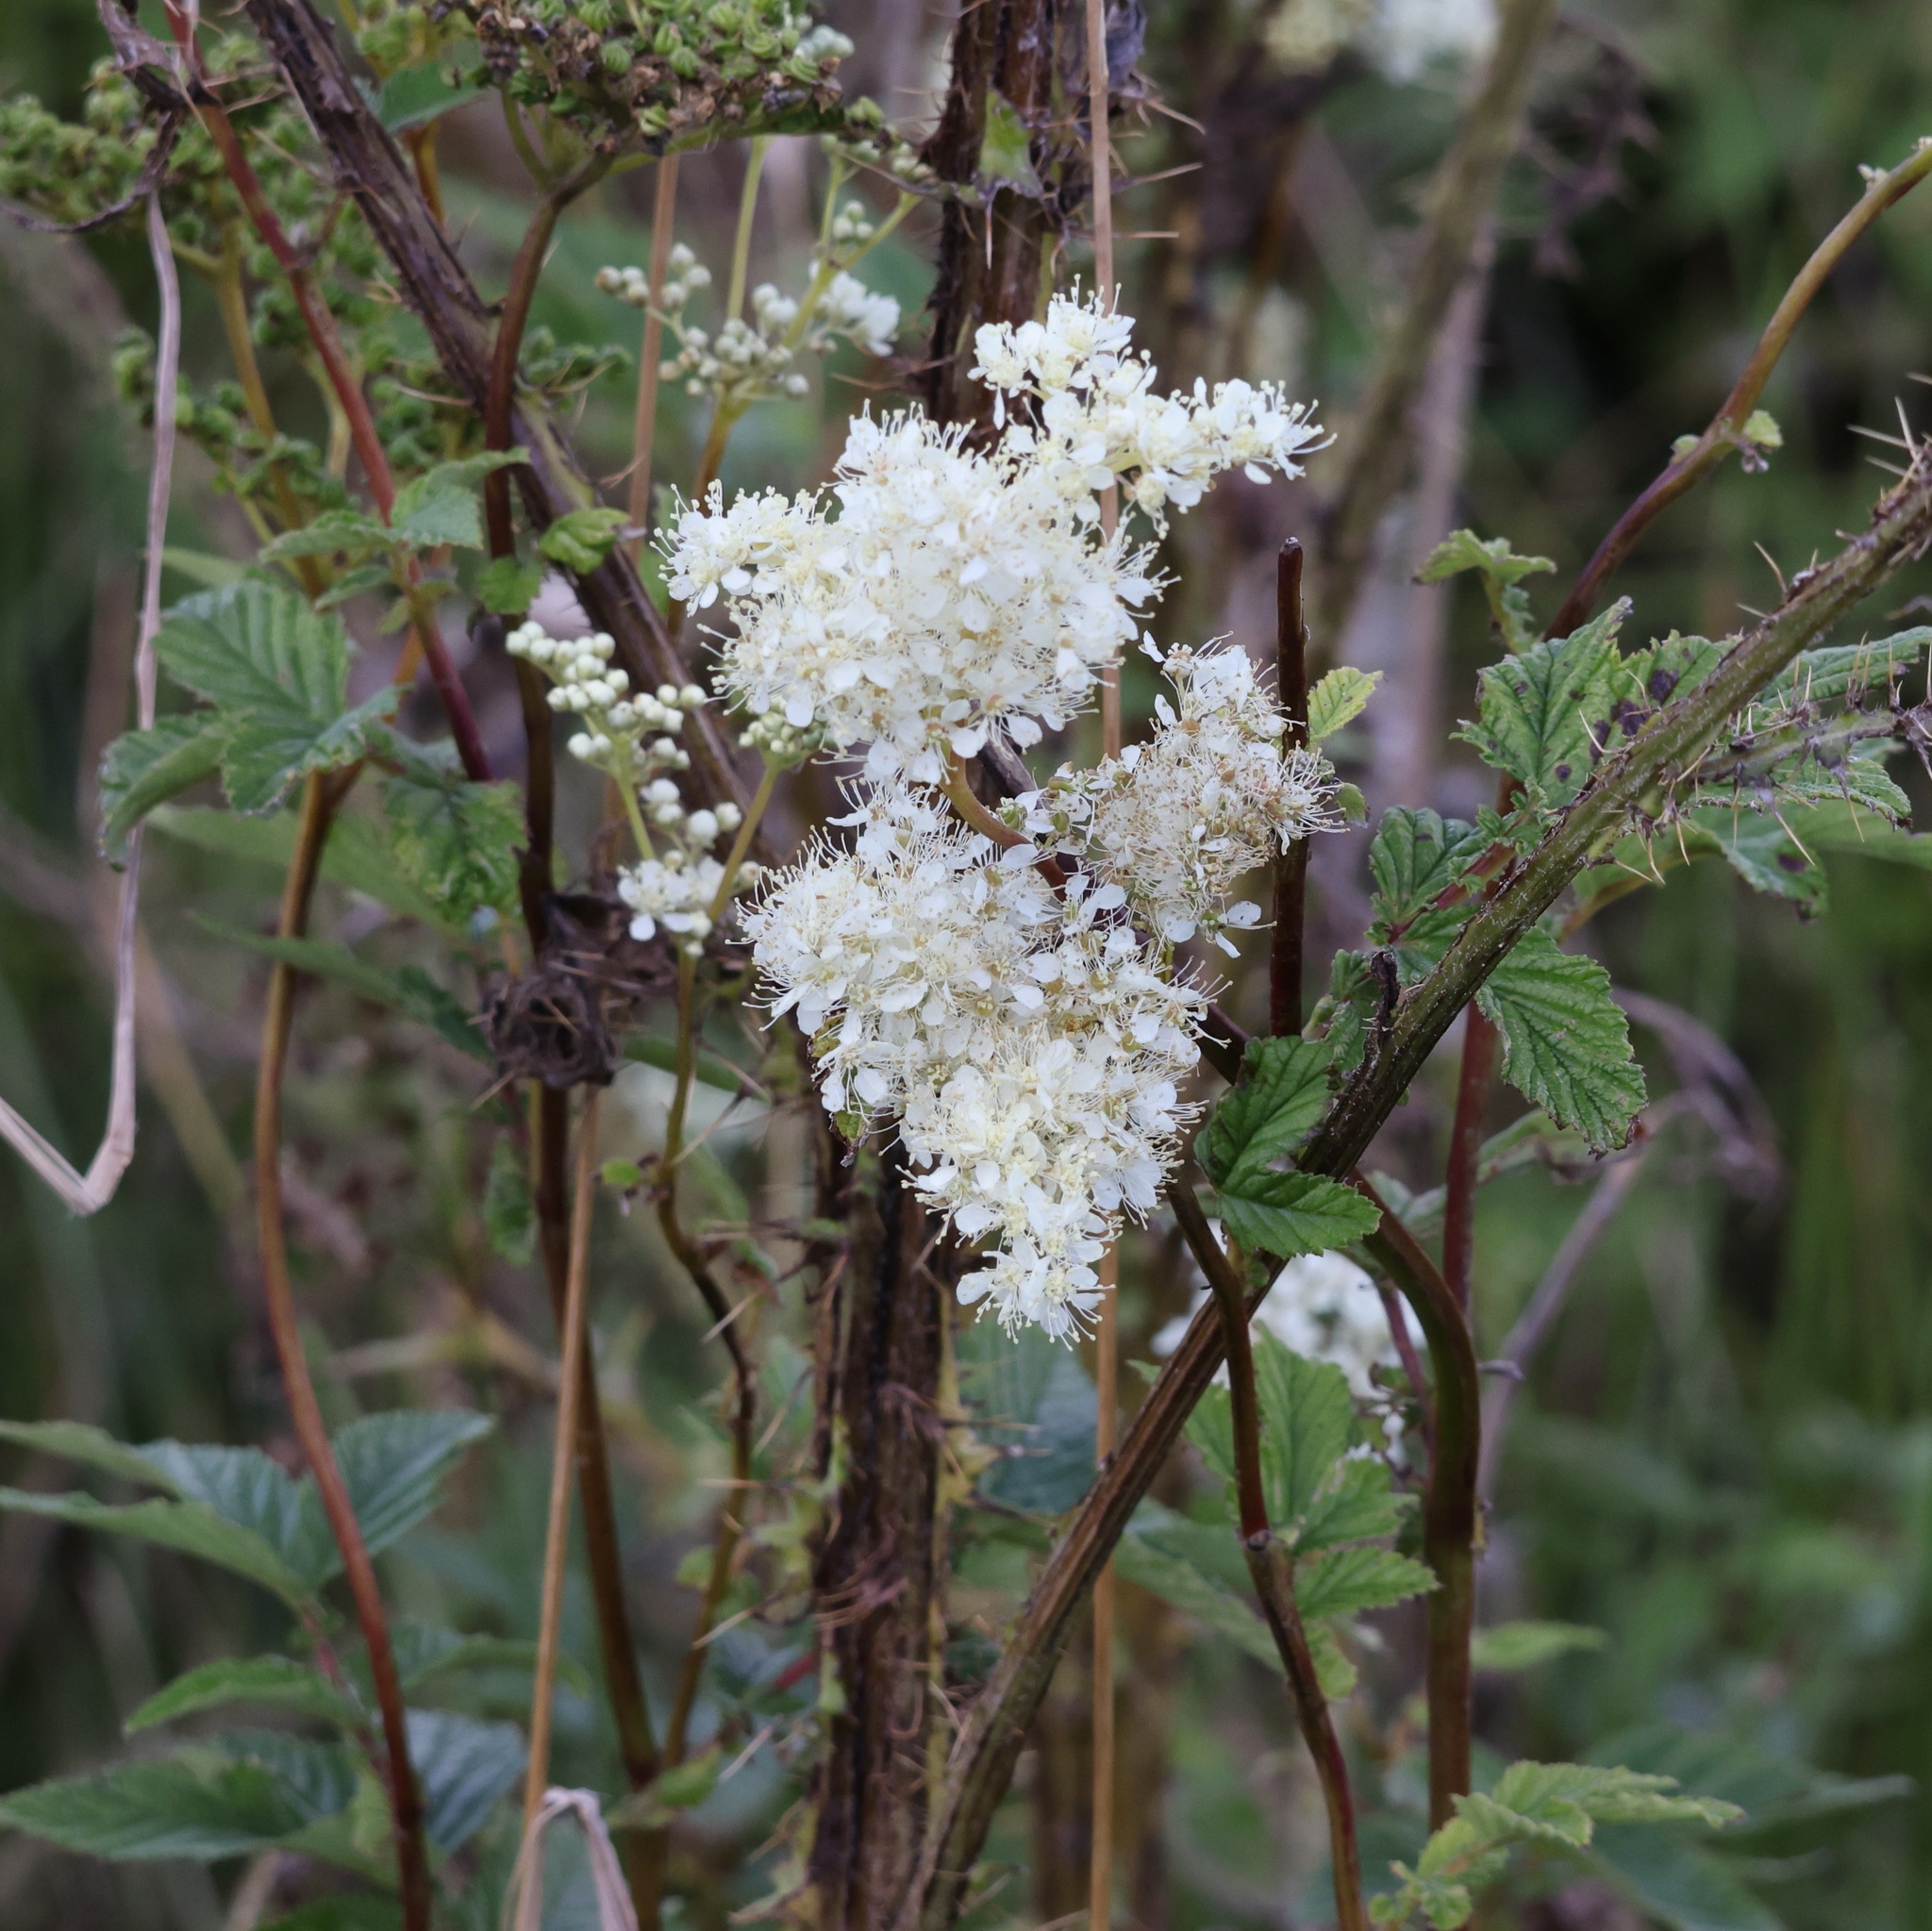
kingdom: Plantae
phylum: Tracheophyta
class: Magnoliopsida
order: Rosales
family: Rosaceae
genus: Filipendula
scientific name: Filipendula ulmaria
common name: Meadowsweet
